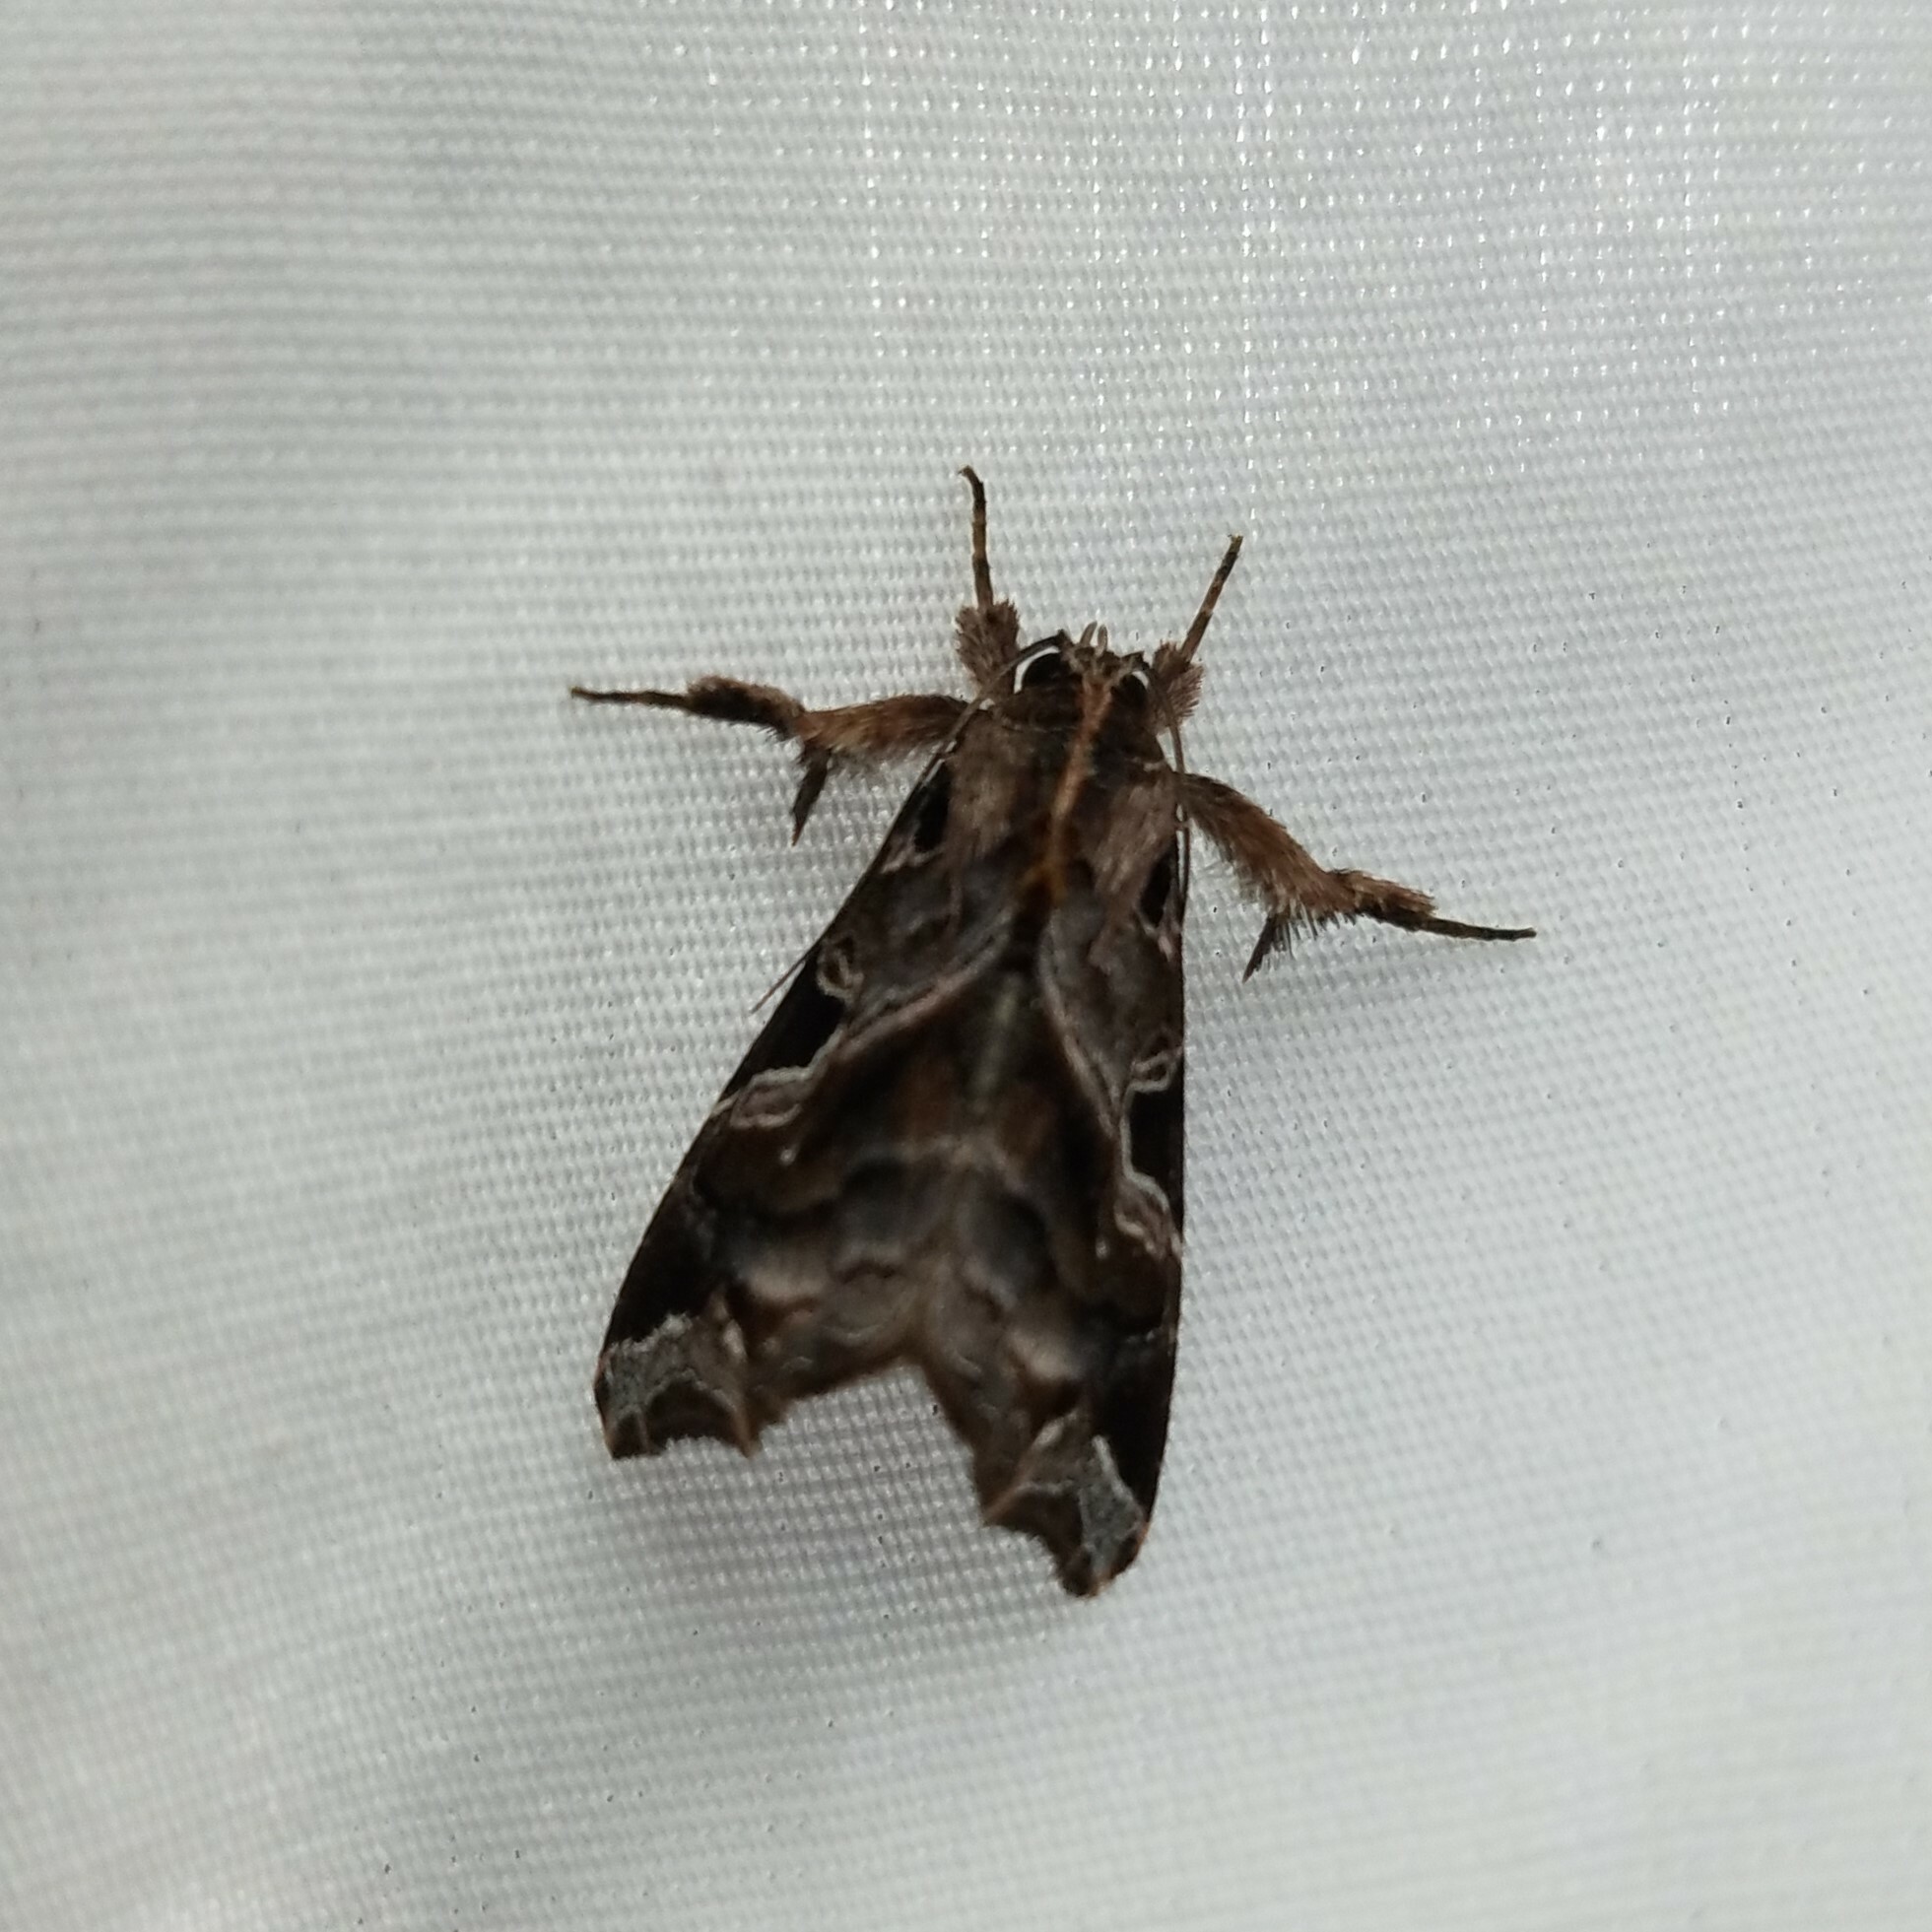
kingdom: Animalia
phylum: Arthropoda
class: Insecta
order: Lepidoptera
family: Noctuidae
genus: Callopistria
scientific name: Callopistria floridensis
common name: Florida fern moth
